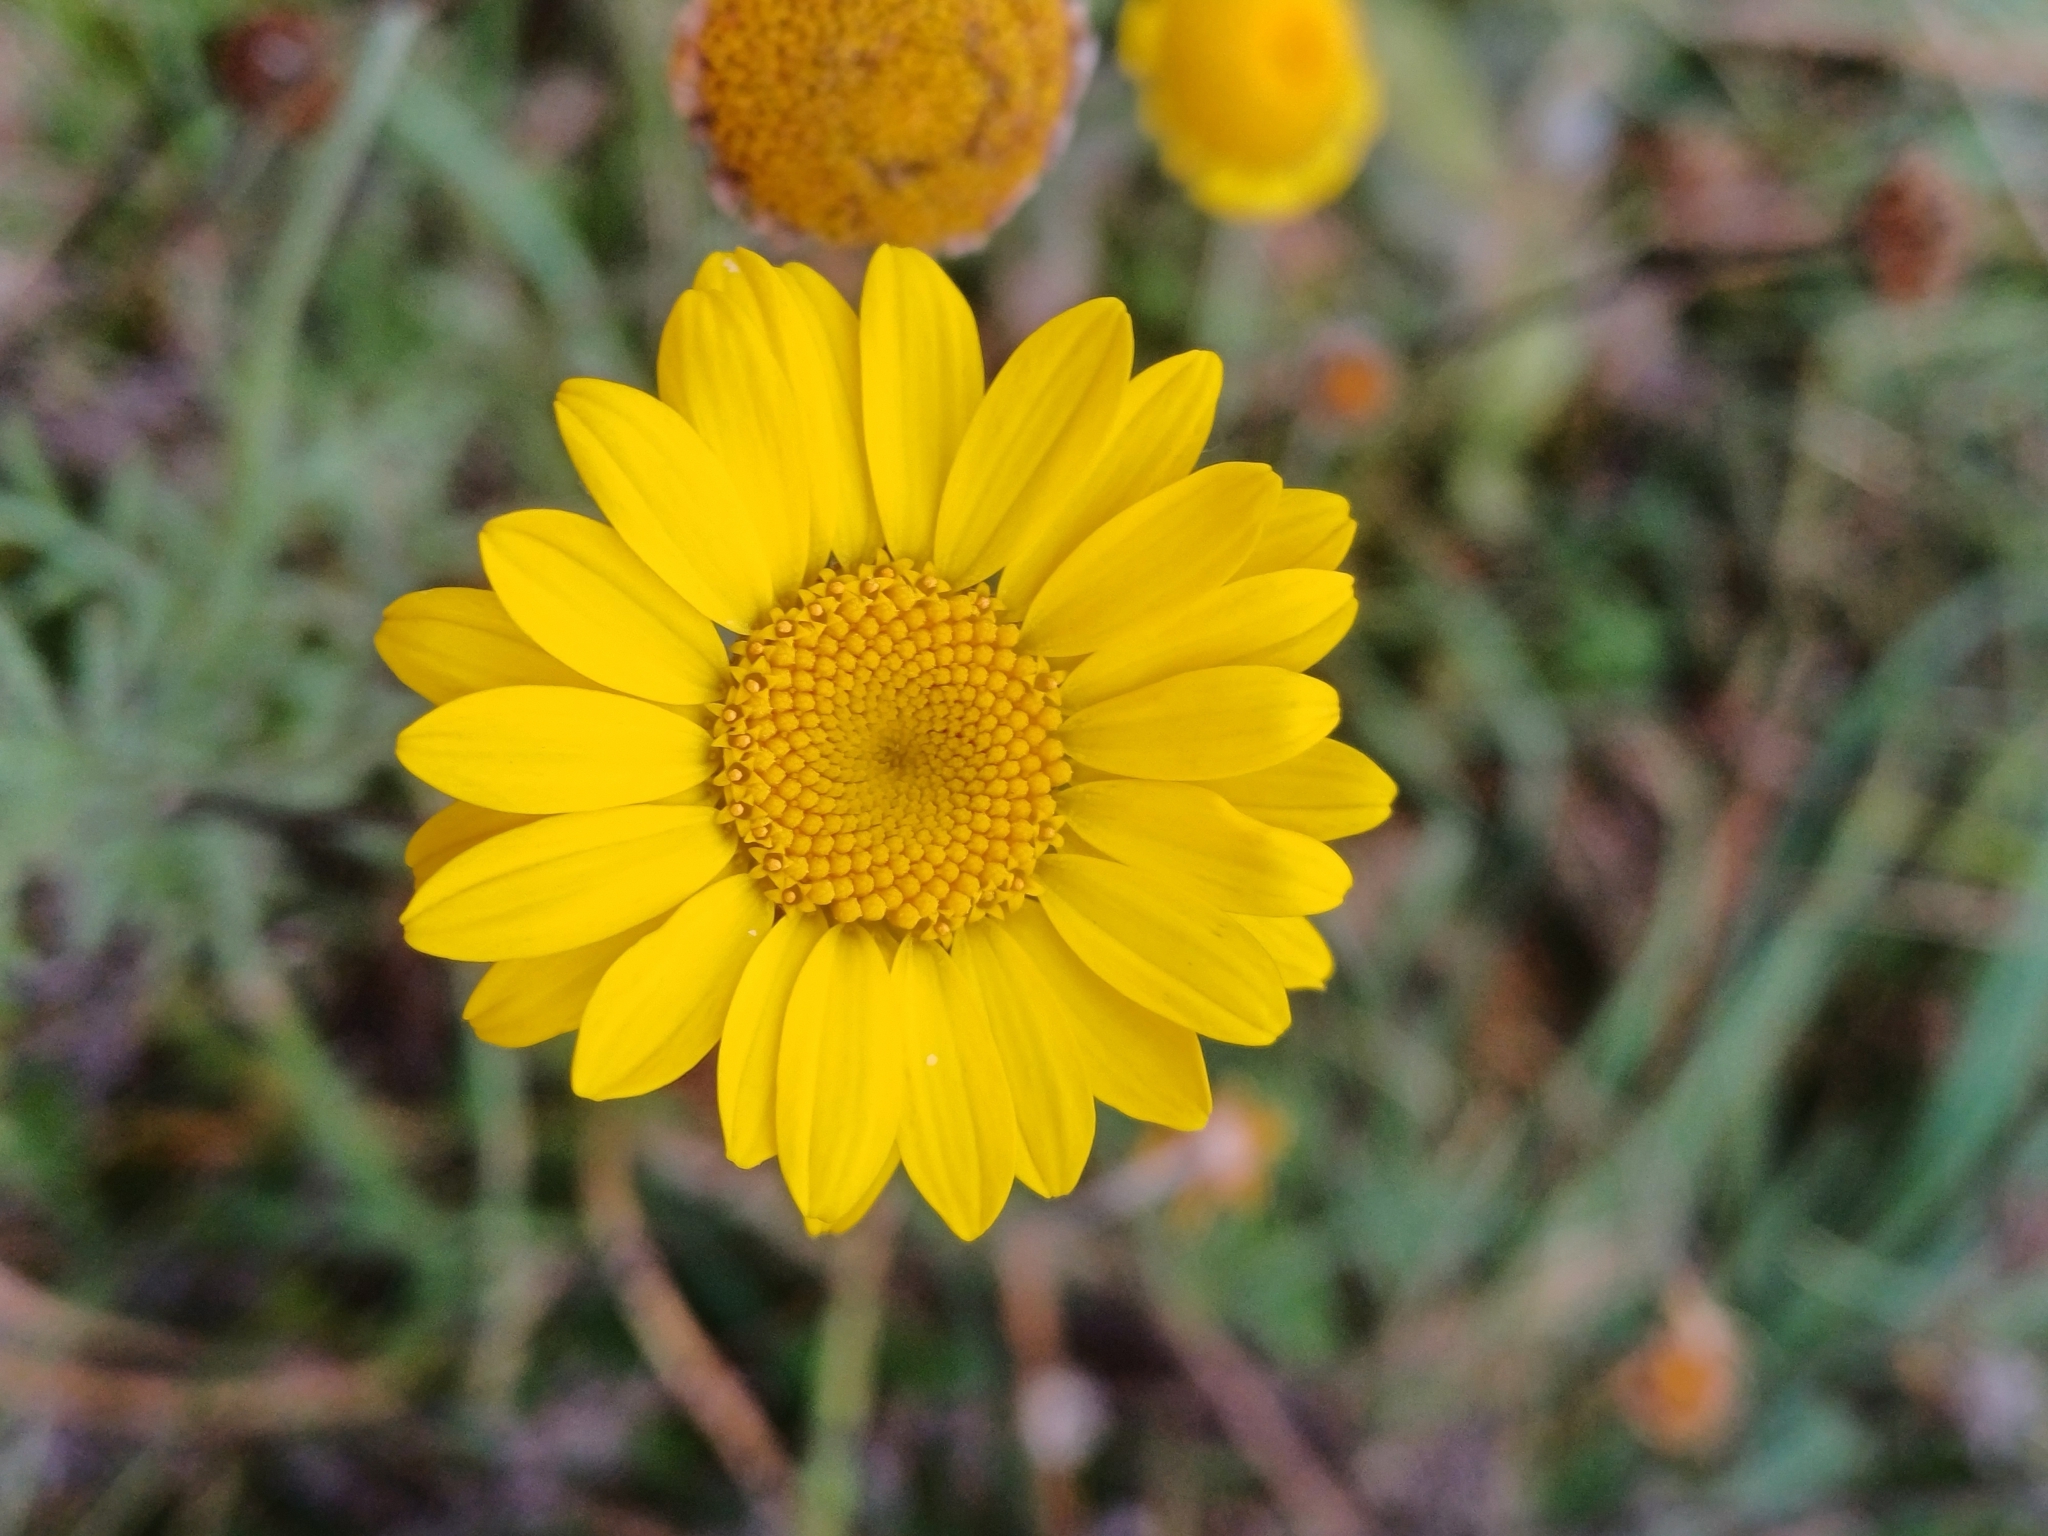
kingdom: Plantae
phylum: Tracheophyta
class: Magnoliopsida
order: Asterales
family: Asteraceae
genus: Cota
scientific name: Cota tinctoria
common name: Golden chamomile
